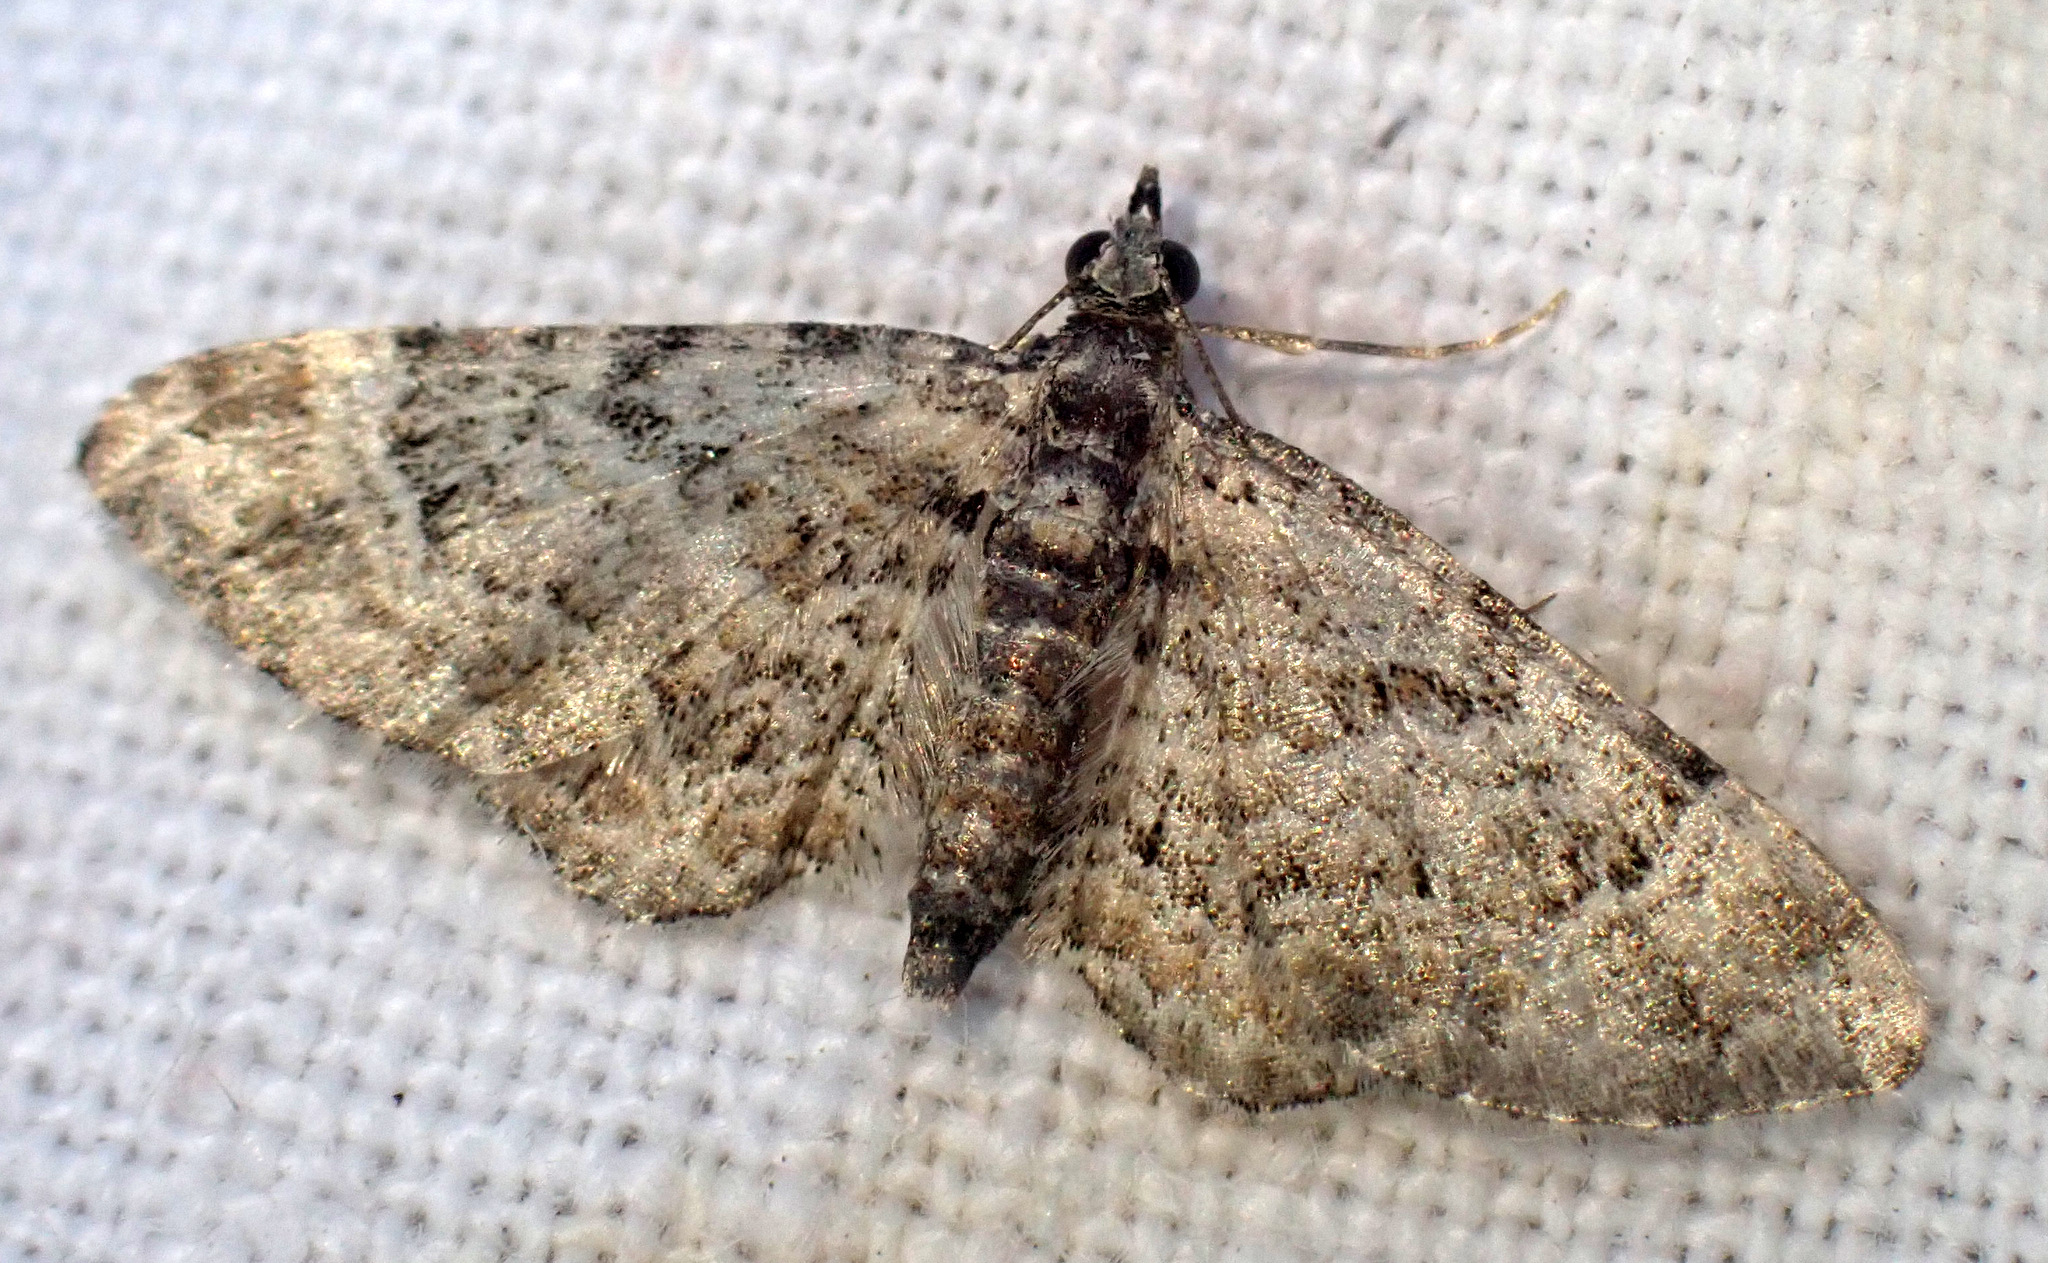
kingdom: Animalia
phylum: Arthropoda
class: Insecta
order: Lepidoptera
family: Geometridae
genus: Gymnoscelis
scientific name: Gymnoscelis rufifasciata
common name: Double-striped pug
